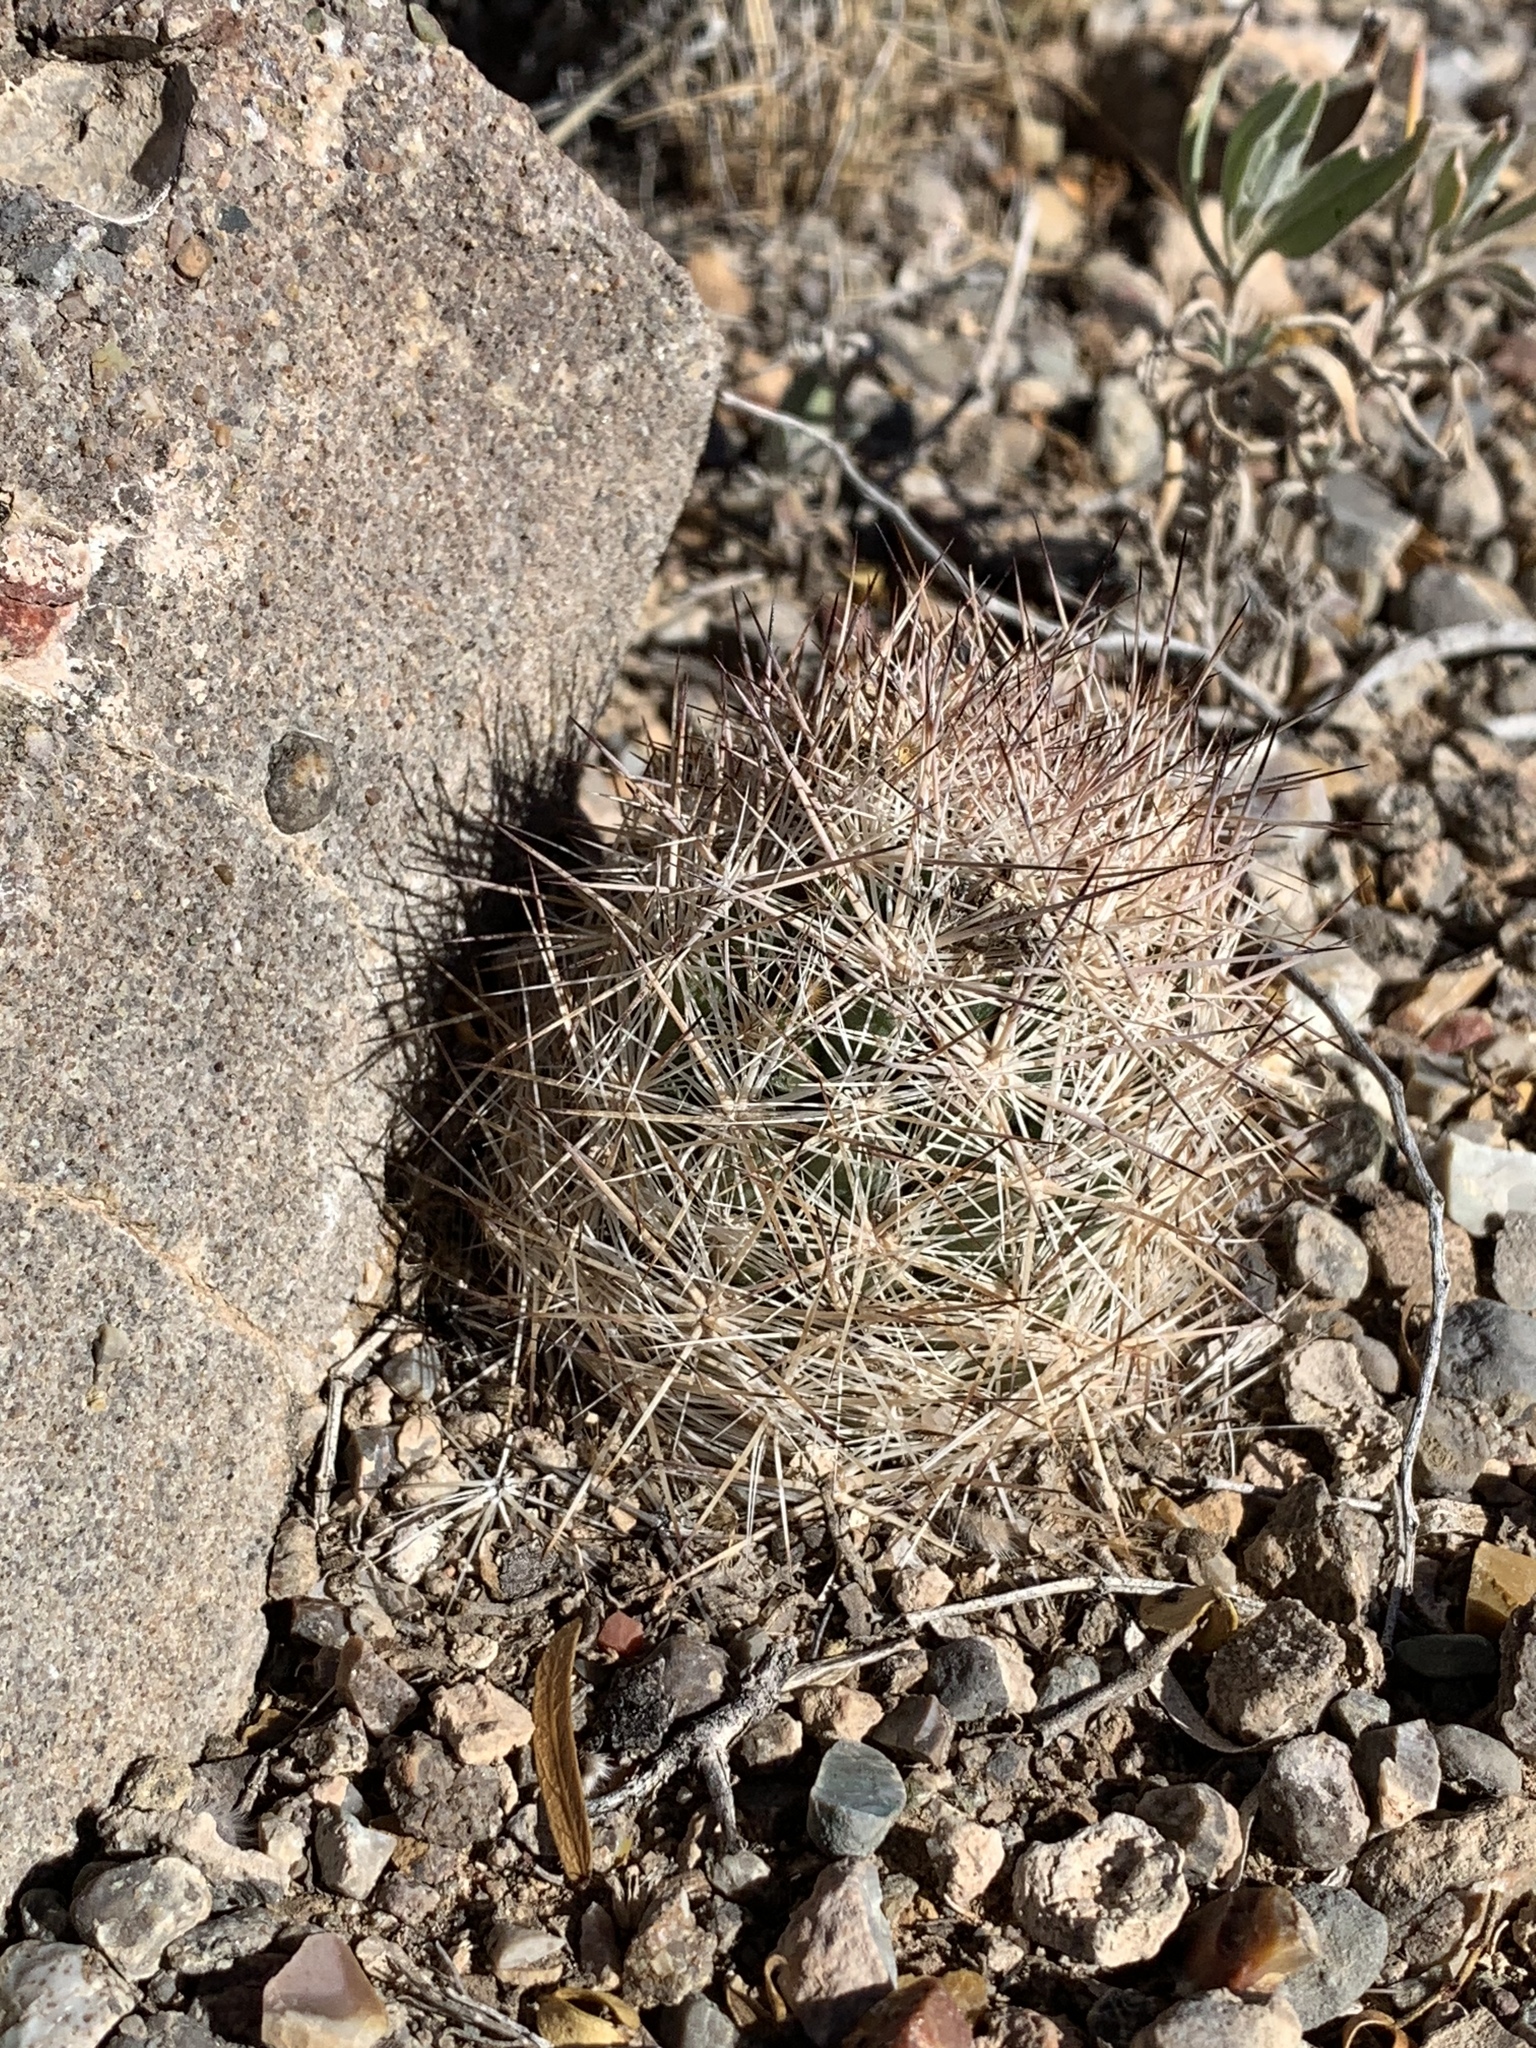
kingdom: Plantae
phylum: Tracheophyta
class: Magnoliopsida
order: Caryophyllales
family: Cactaceae
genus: Pelecyphora
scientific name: Pelecyphora vivipara
